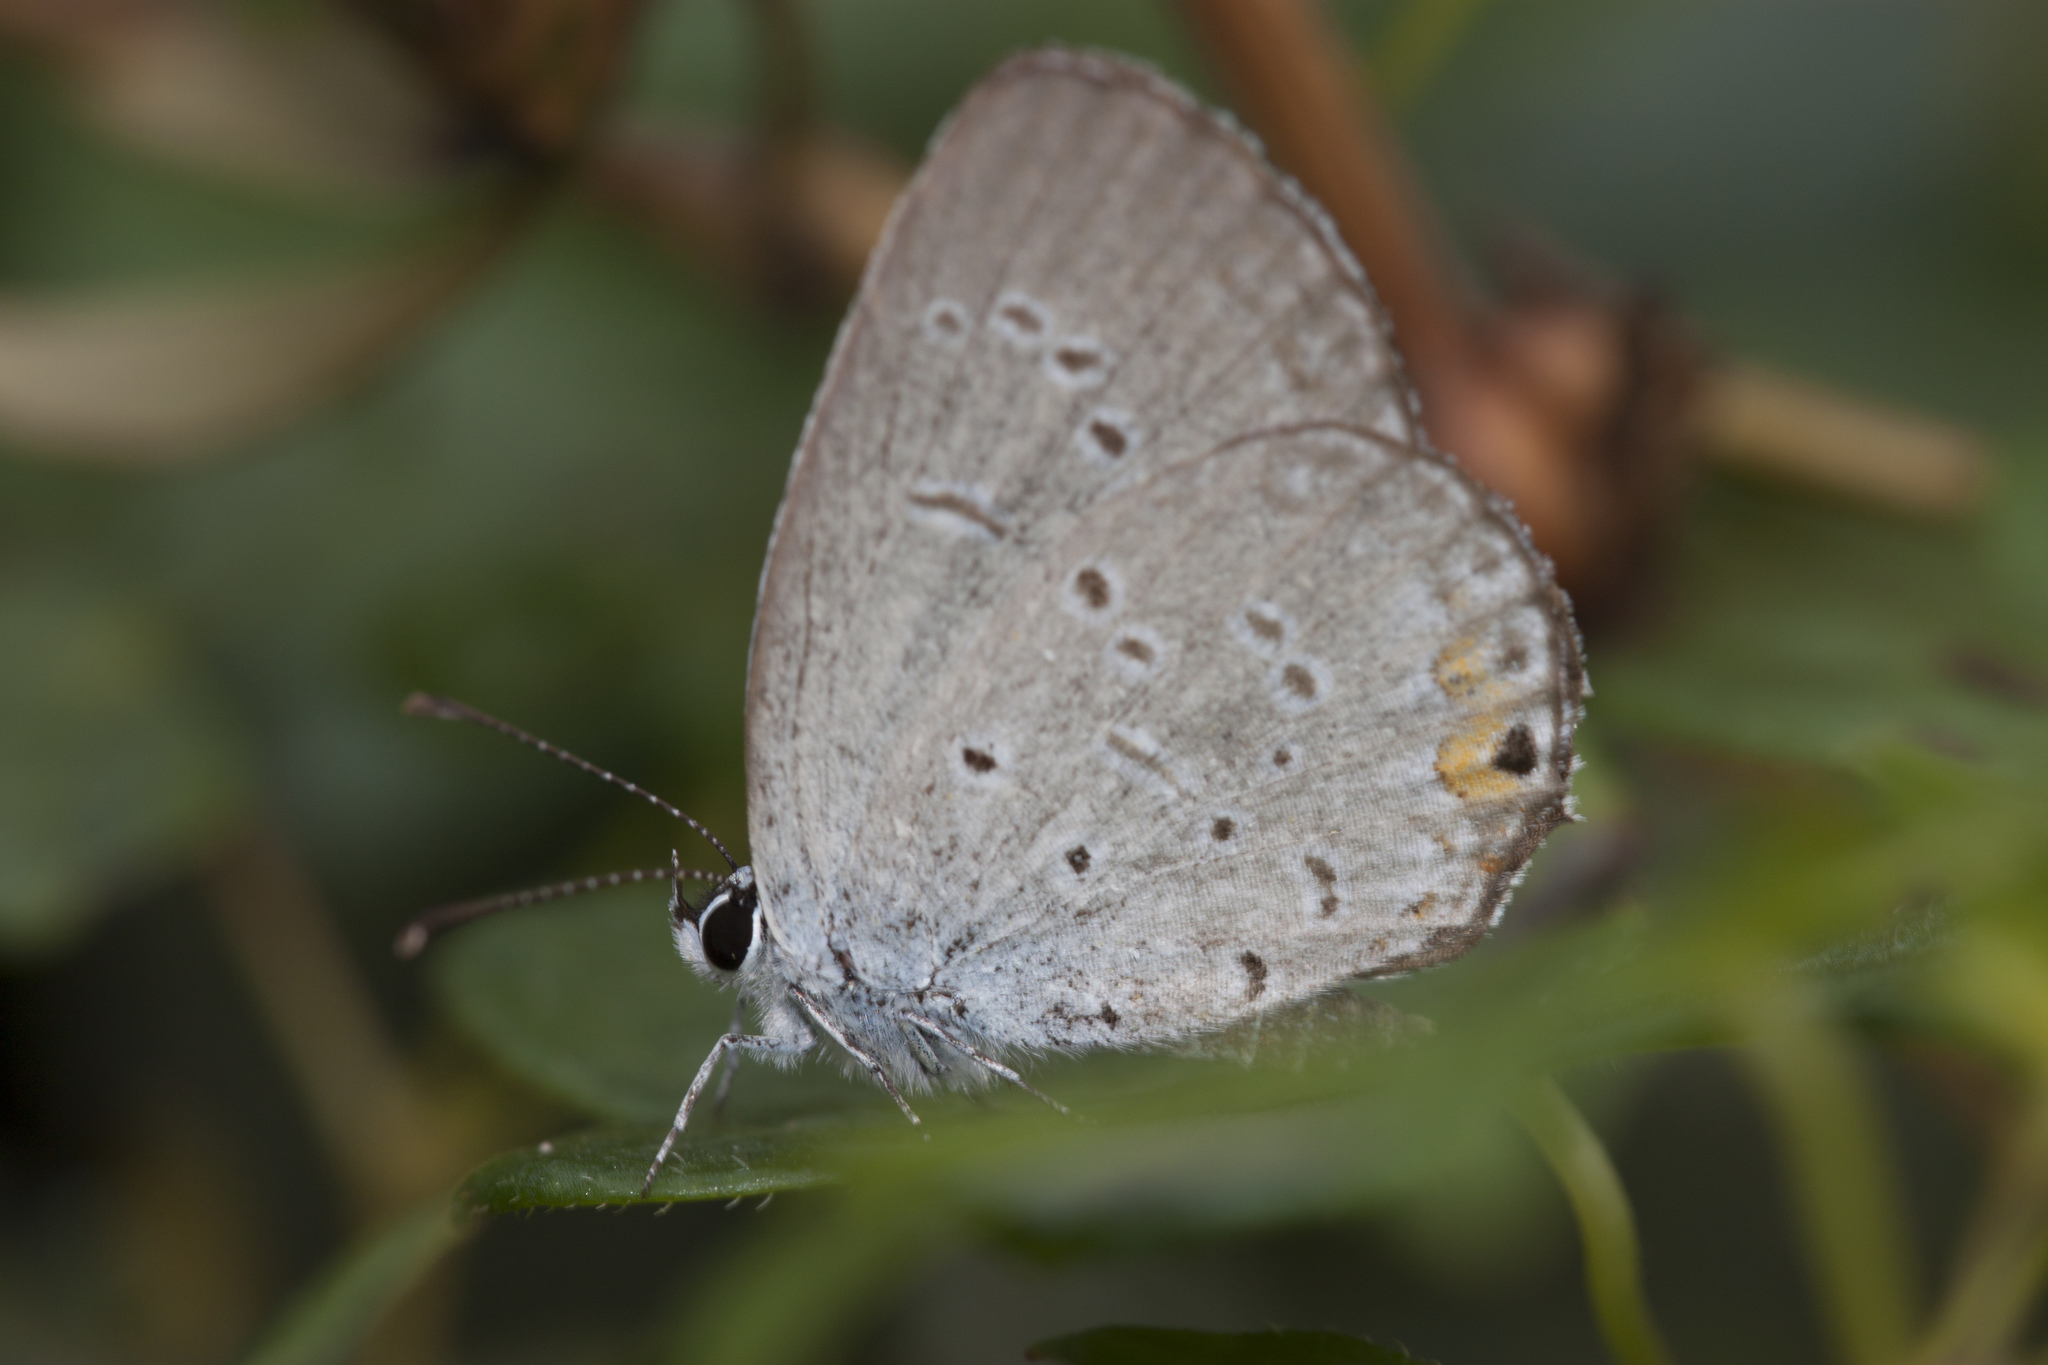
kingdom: Animalia
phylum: Arthropoda
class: Insecta
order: Lepidoptera
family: Lycaenidae
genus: Elkalyce
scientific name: Elkalyce comyntas
